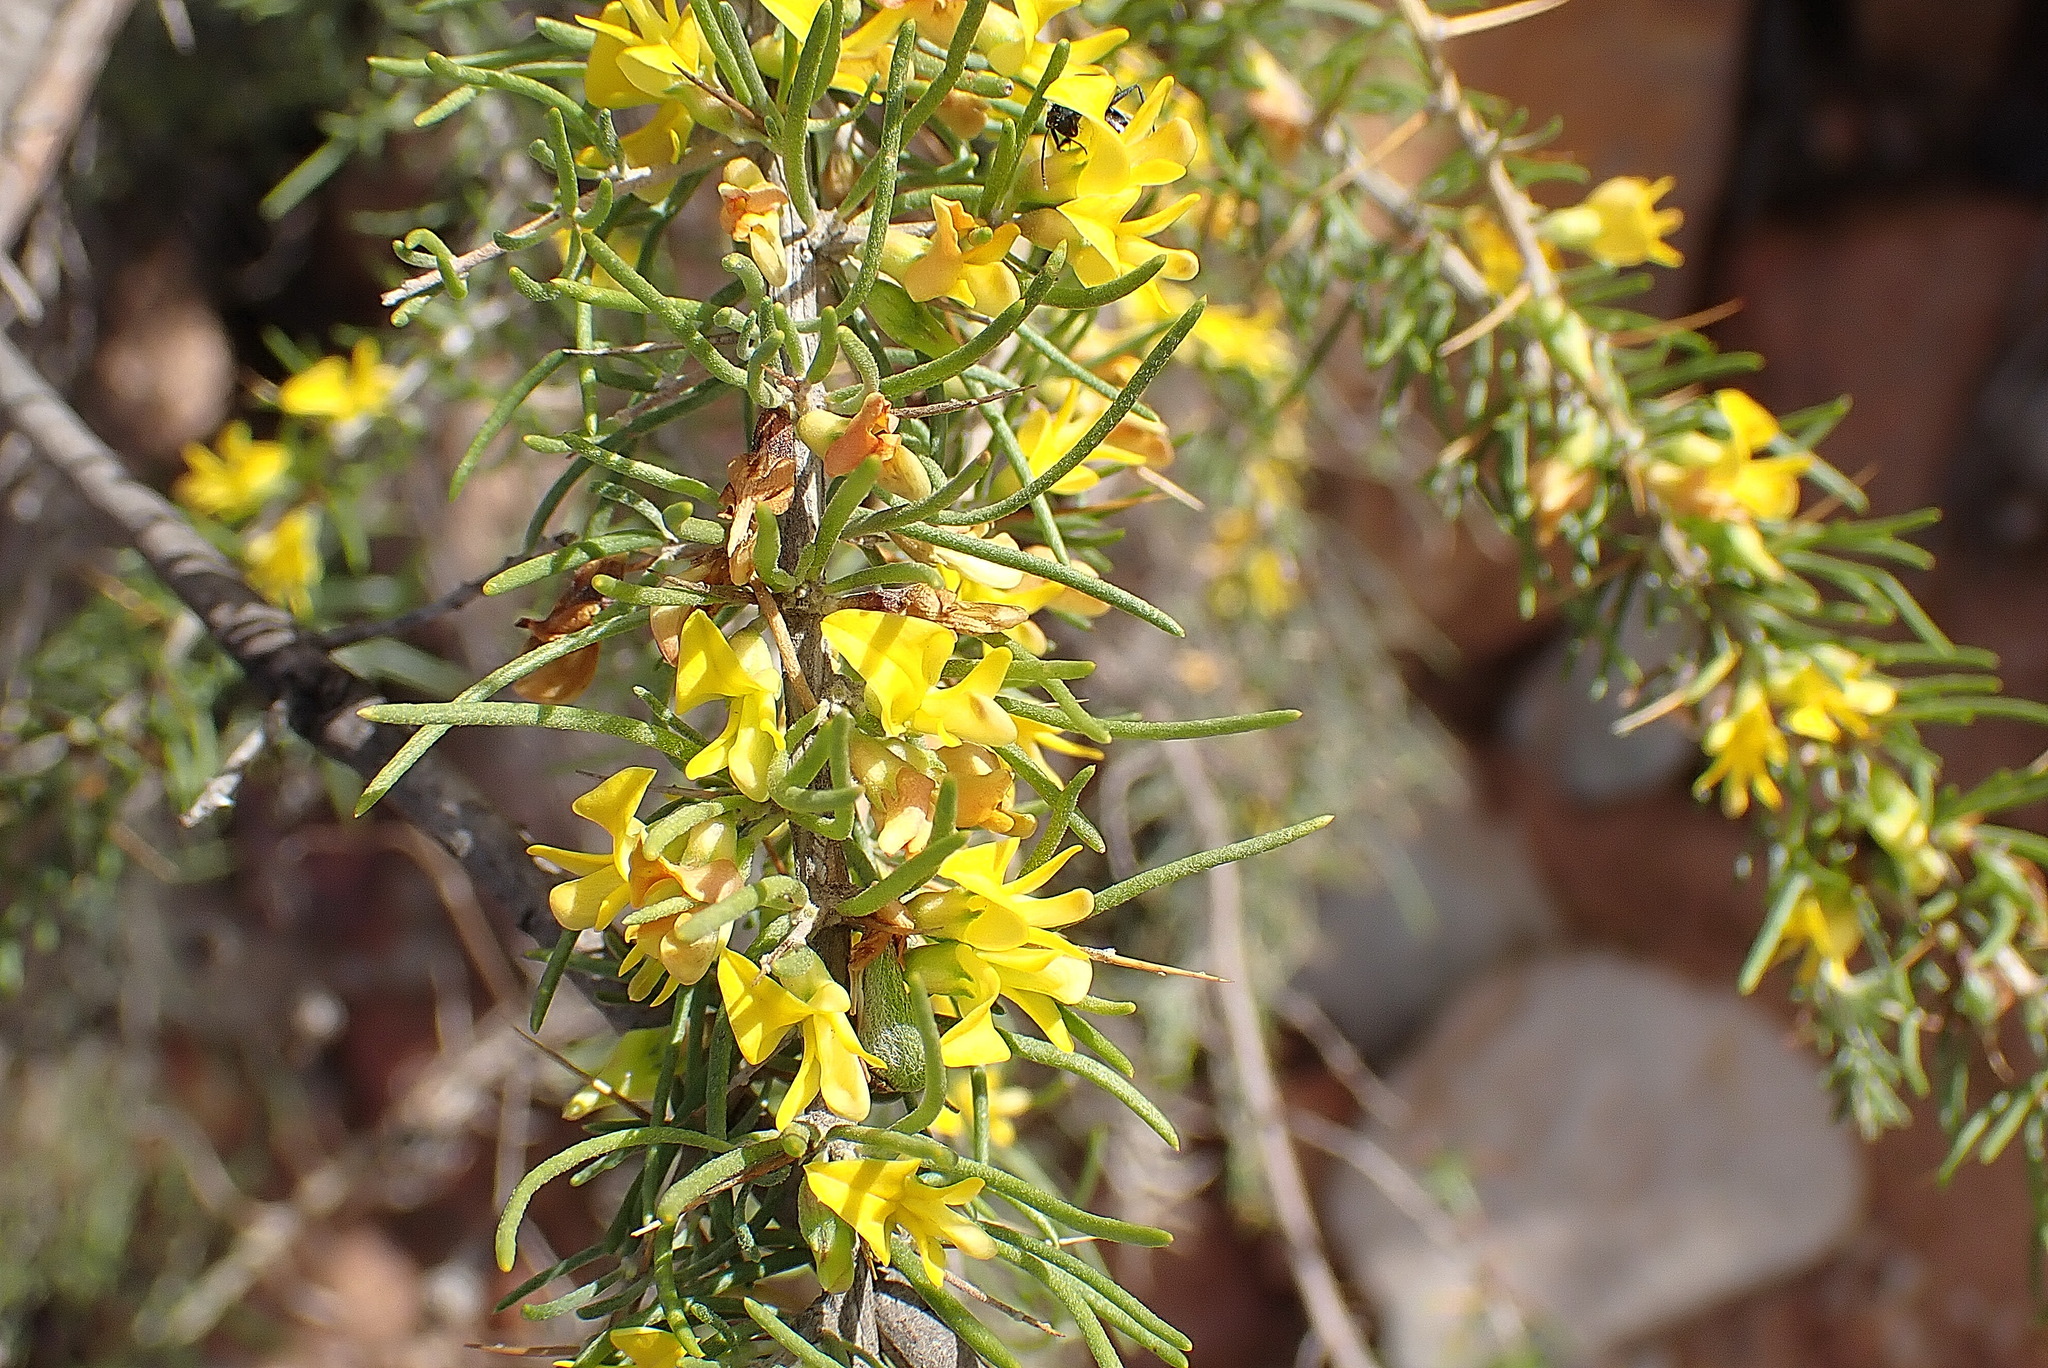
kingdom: Plantae
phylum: Tracheophyta
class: Magnoliopsida
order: Fabales
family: Fabaceae
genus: Aspalathus
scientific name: Aspalathus spinosa
